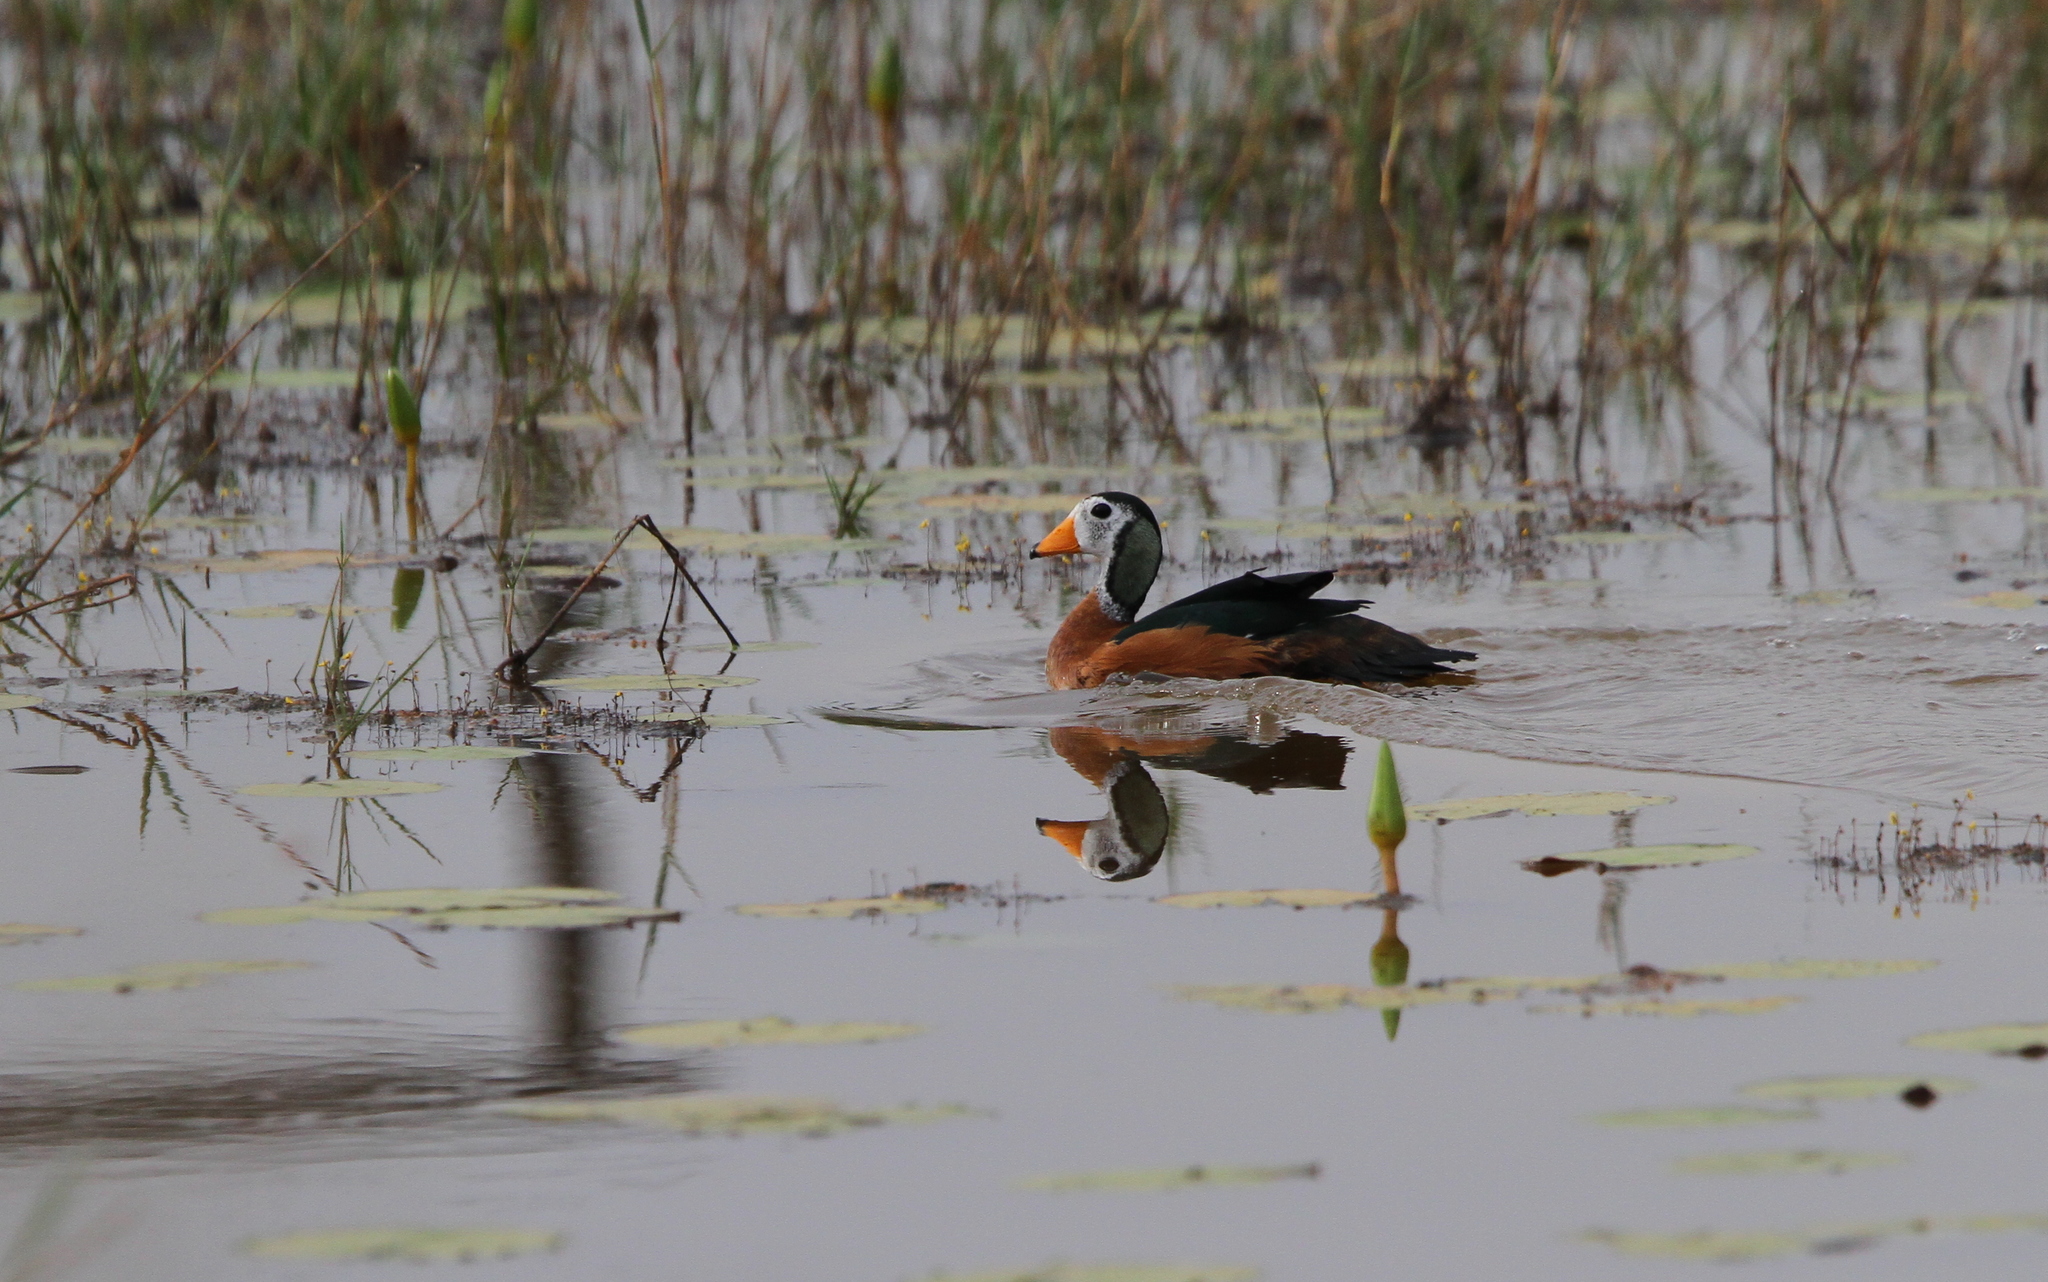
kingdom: Animalia
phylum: Chordata
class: Aves
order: Anseriformes
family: Anatidae
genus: Nettapus
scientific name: Nettapus auritus
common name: African pygmy-goose
